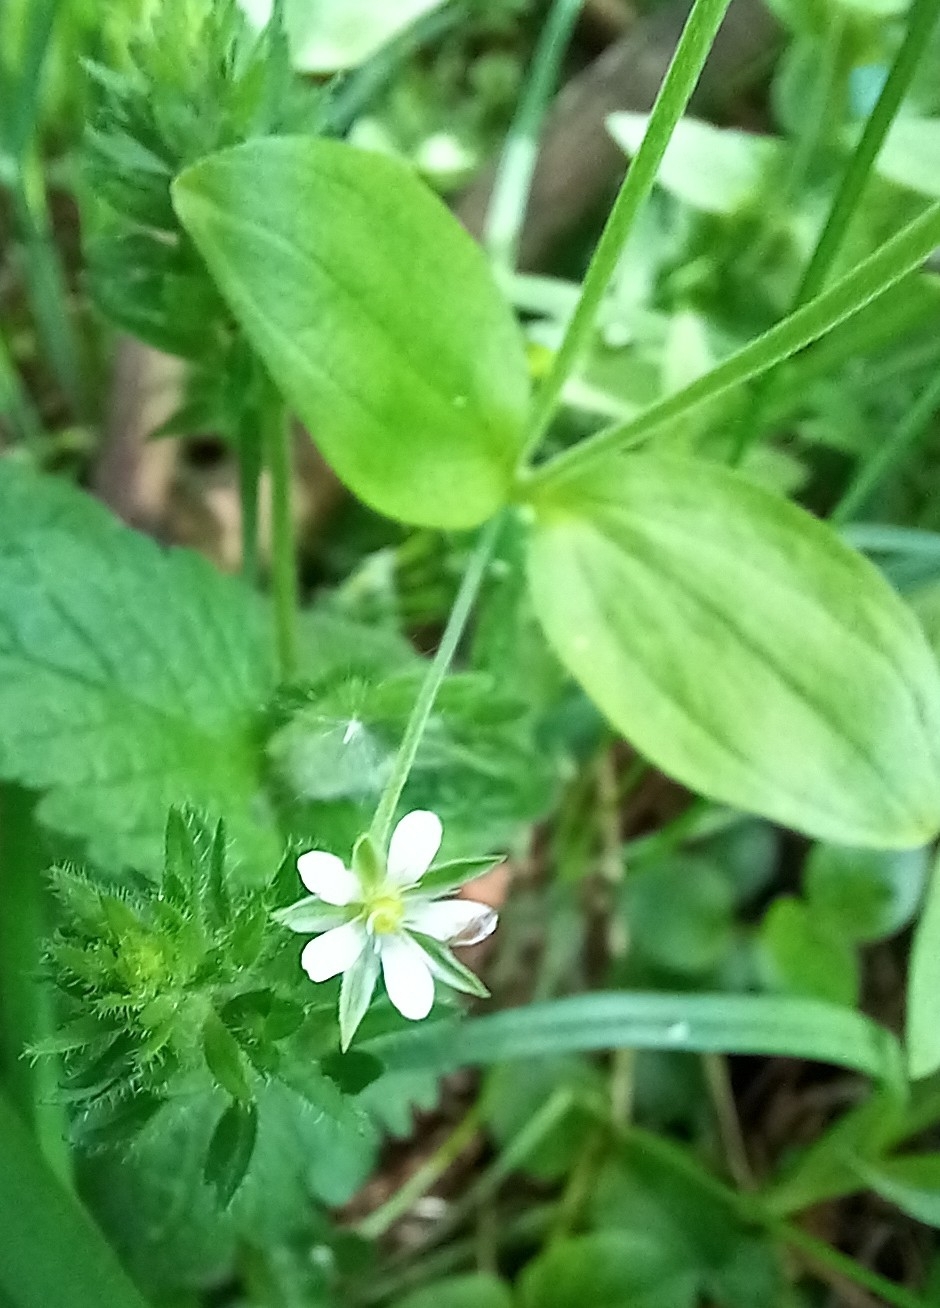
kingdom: Plantae
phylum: Tracheophyta
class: Magnoliopsida
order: Caryophyllales
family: Caryophyllaceae
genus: Moehringia
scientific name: Moehringia trinervia
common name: Three-nerved sandwort
